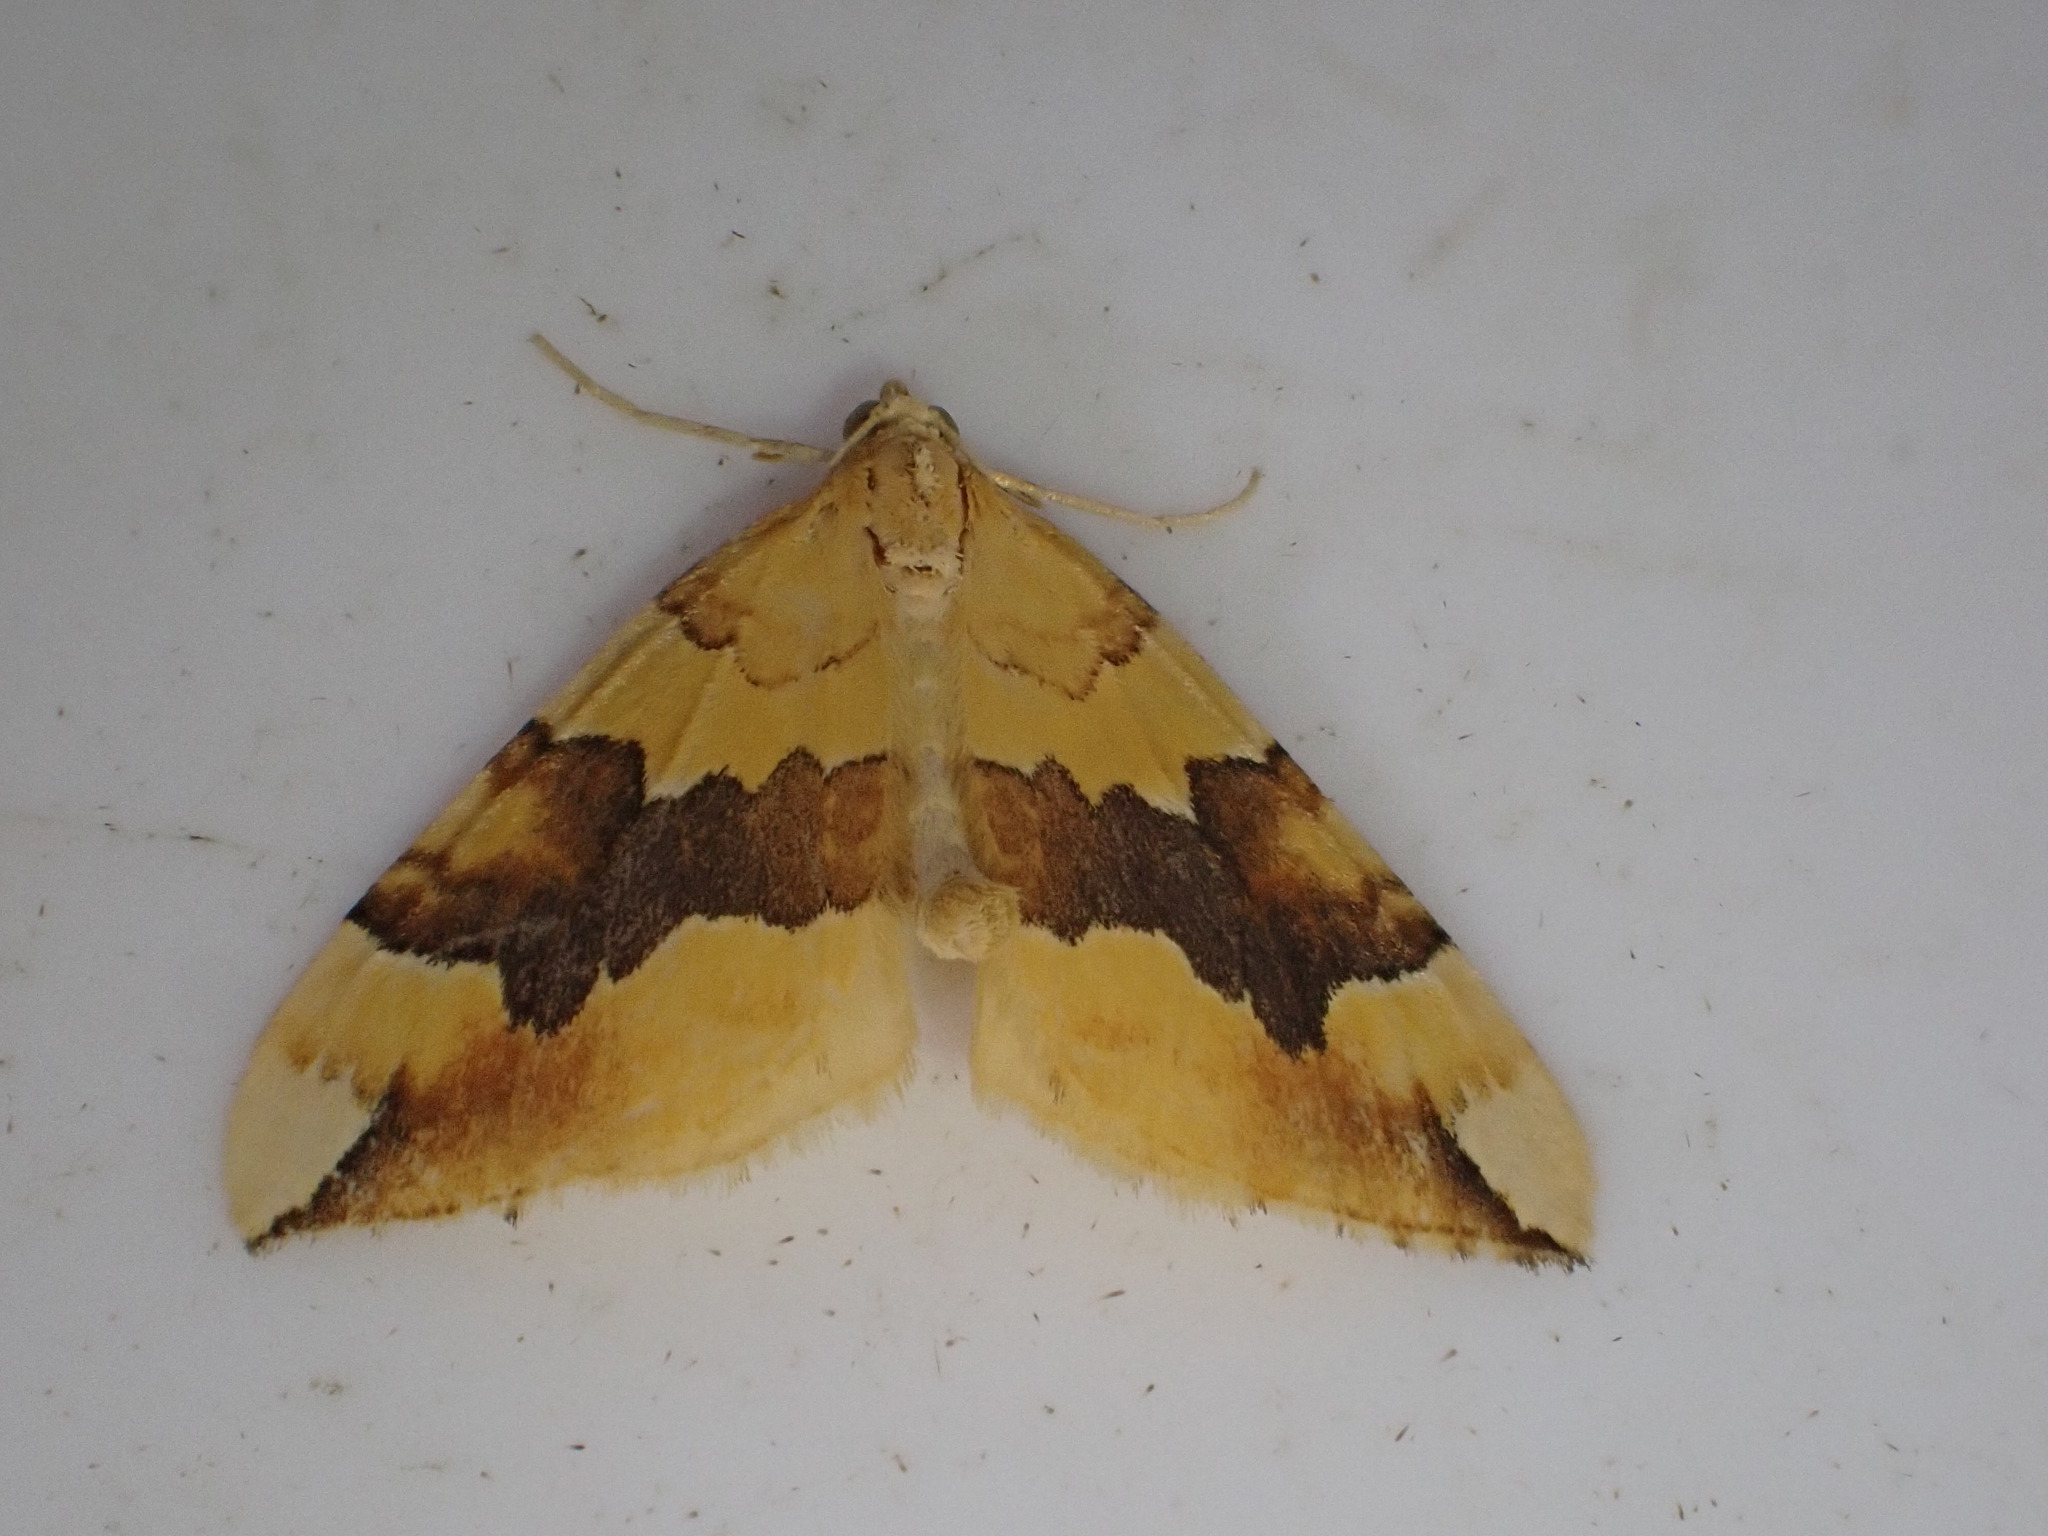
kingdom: Animalia
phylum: Arthropoda
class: Insecta
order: Lepidoptera
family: Geometridae
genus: Cidaria
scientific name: Cidaria fulvata
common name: Barred yellow
